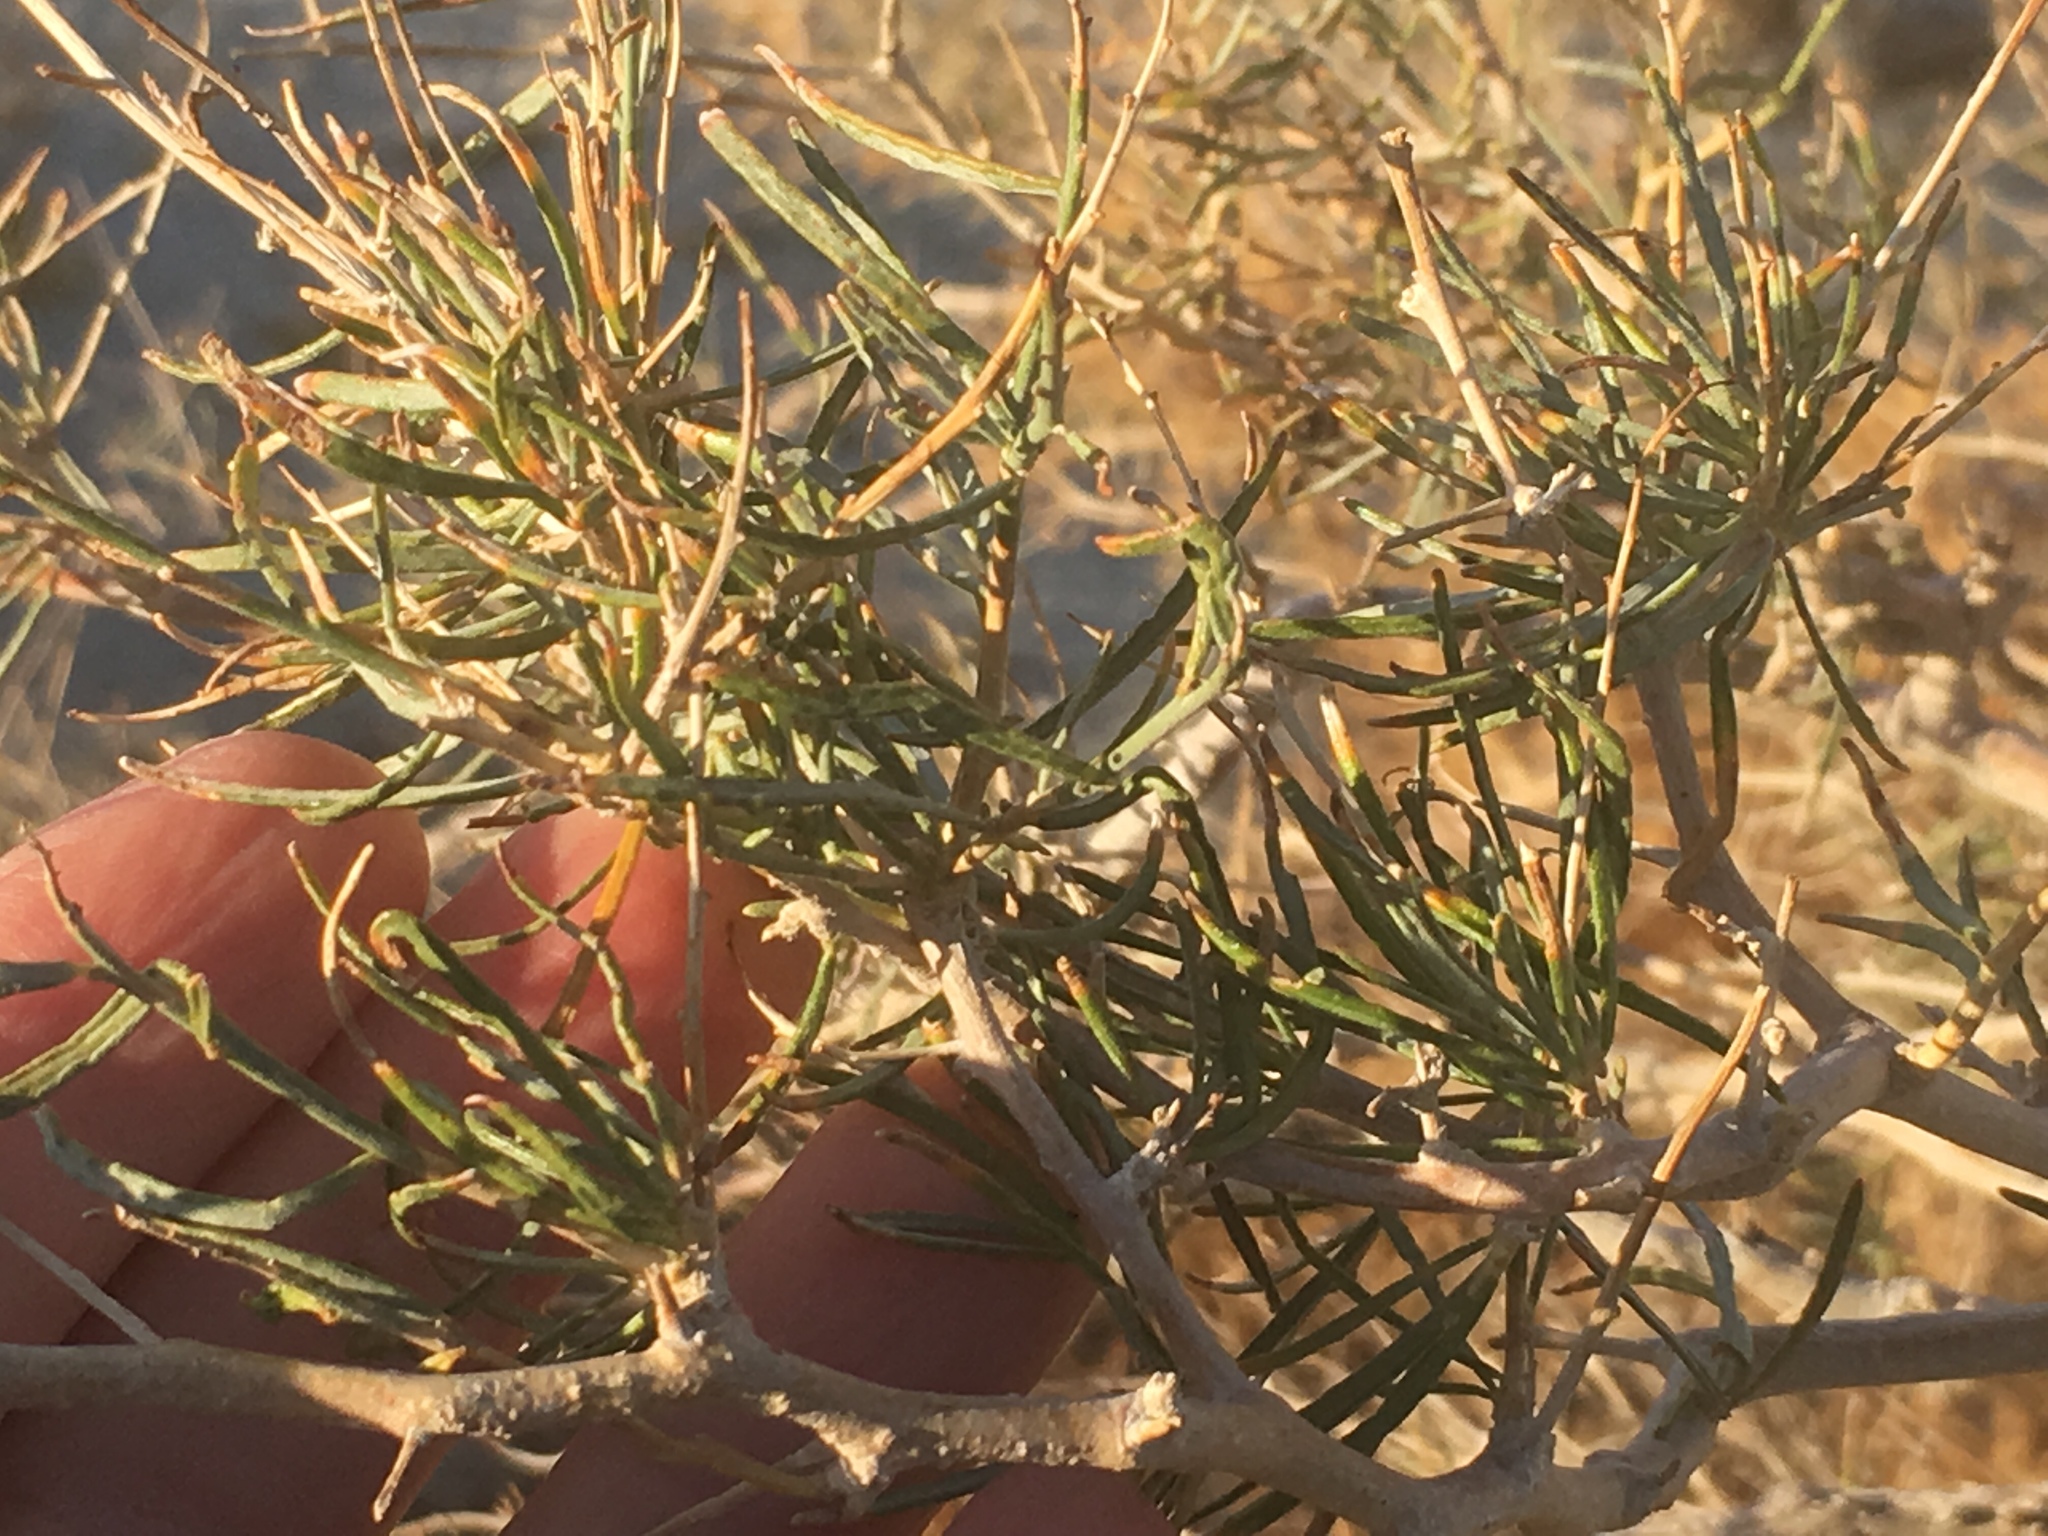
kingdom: Plantae
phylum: Tracheophyta
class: Magnoliopsida
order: Fabales
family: Fabaceae
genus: Psorothamnus
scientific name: Psorothamnus schottii
